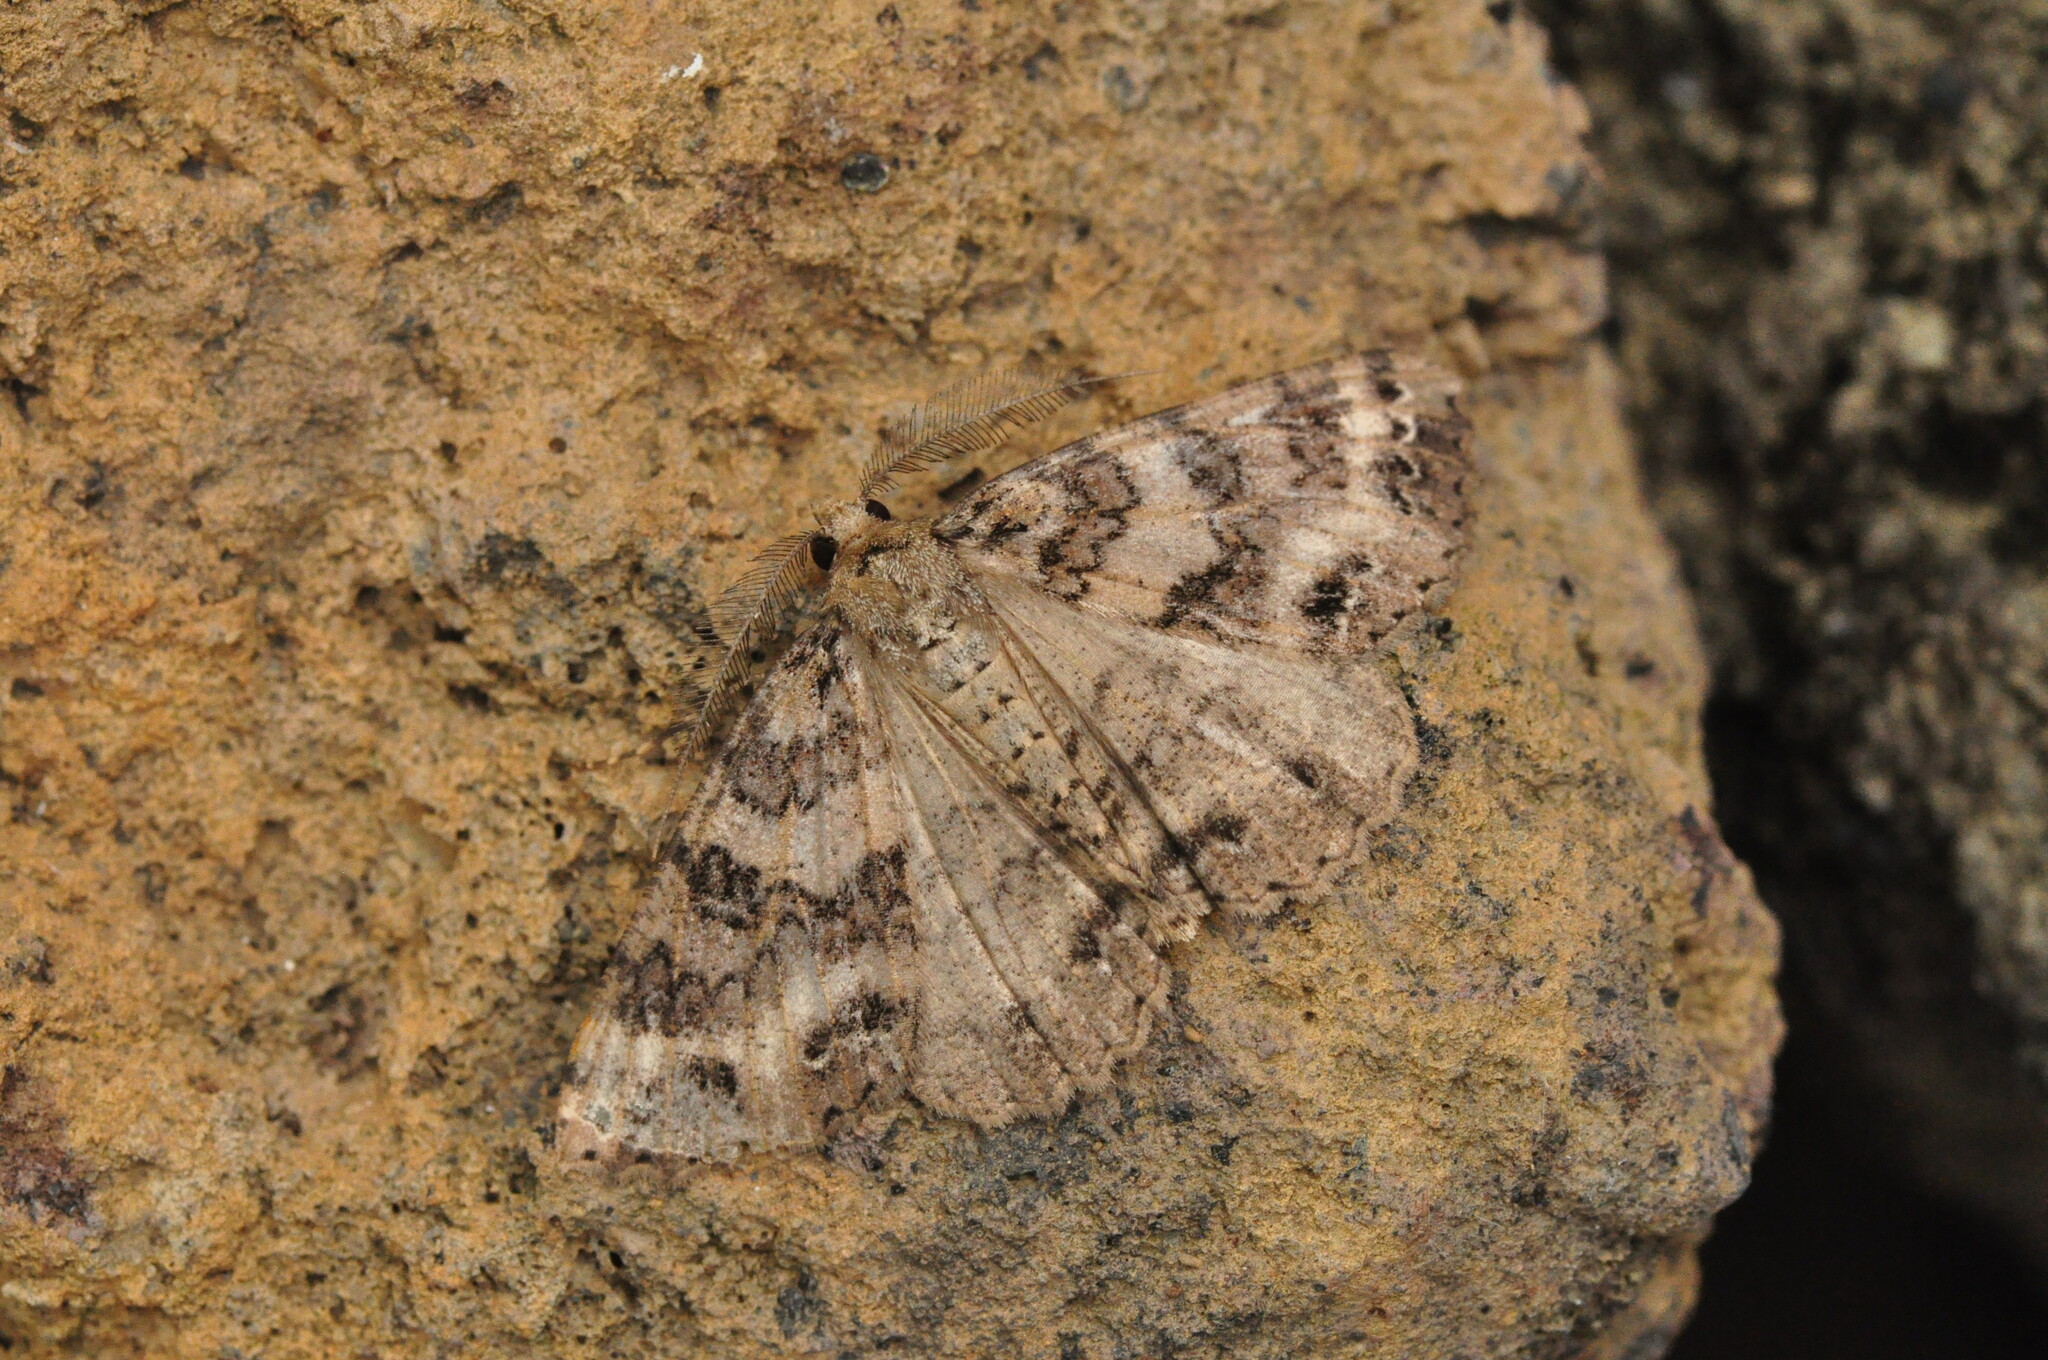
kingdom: Animalia
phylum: Arthropoda
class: Insecta
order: Lepidoptera
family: Geometridae
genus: Ascotis
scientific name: Ascotis fortunata
